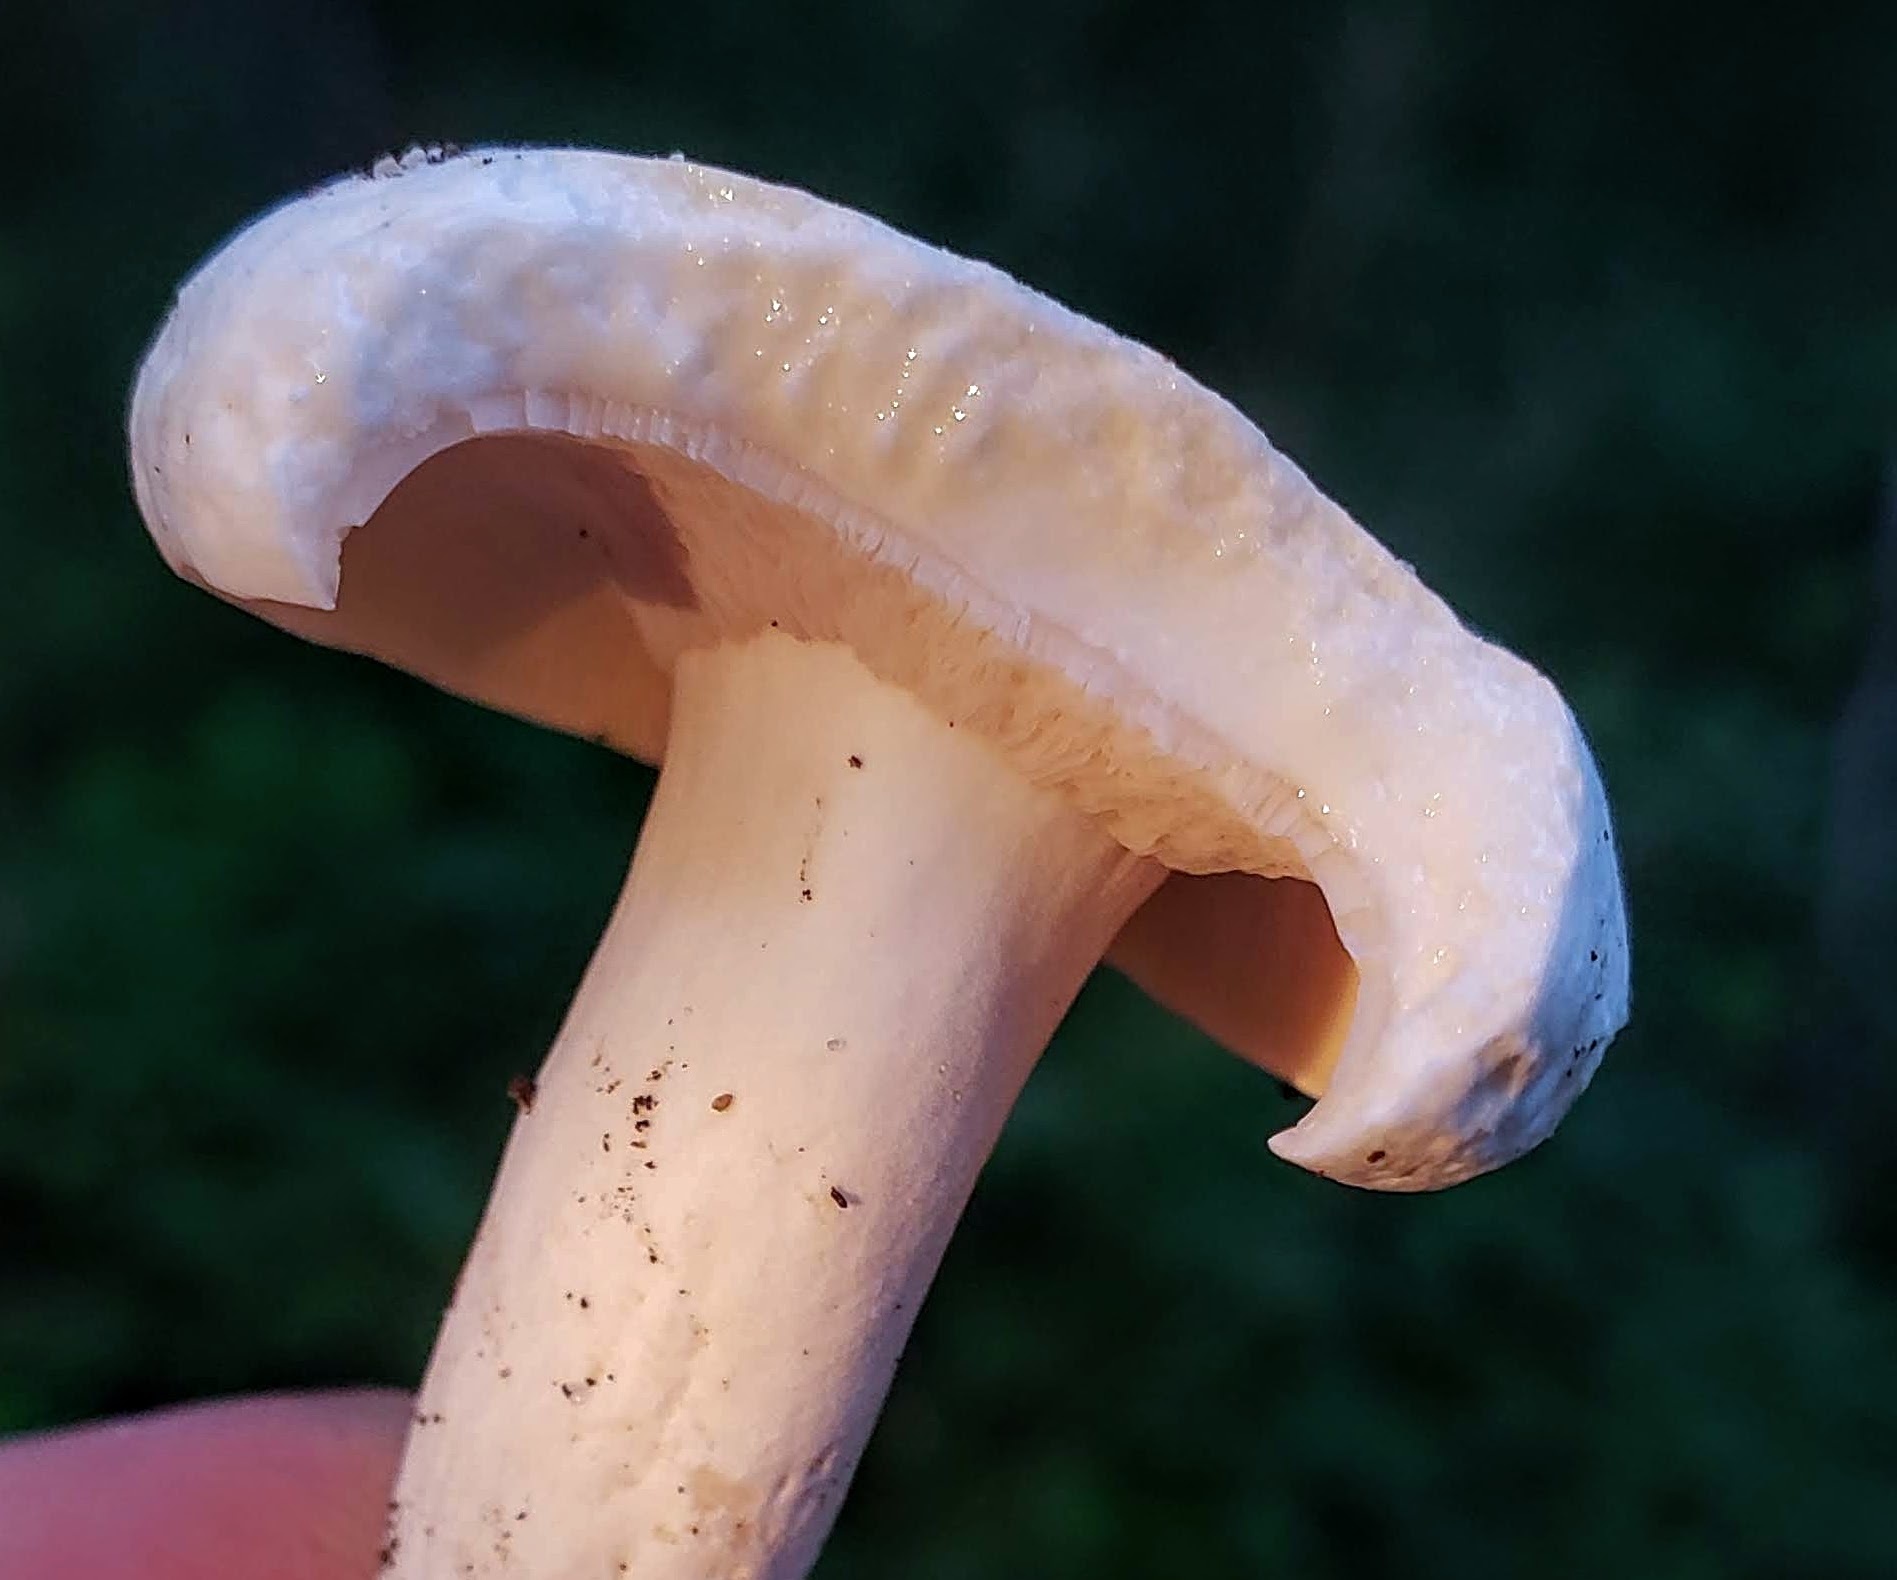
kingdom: Fungi
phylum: Basidiomycota
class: Agaricomycetes
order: Russulales
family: Russulaceae
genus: Lactifluus
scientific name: Lactifluus piperatus
